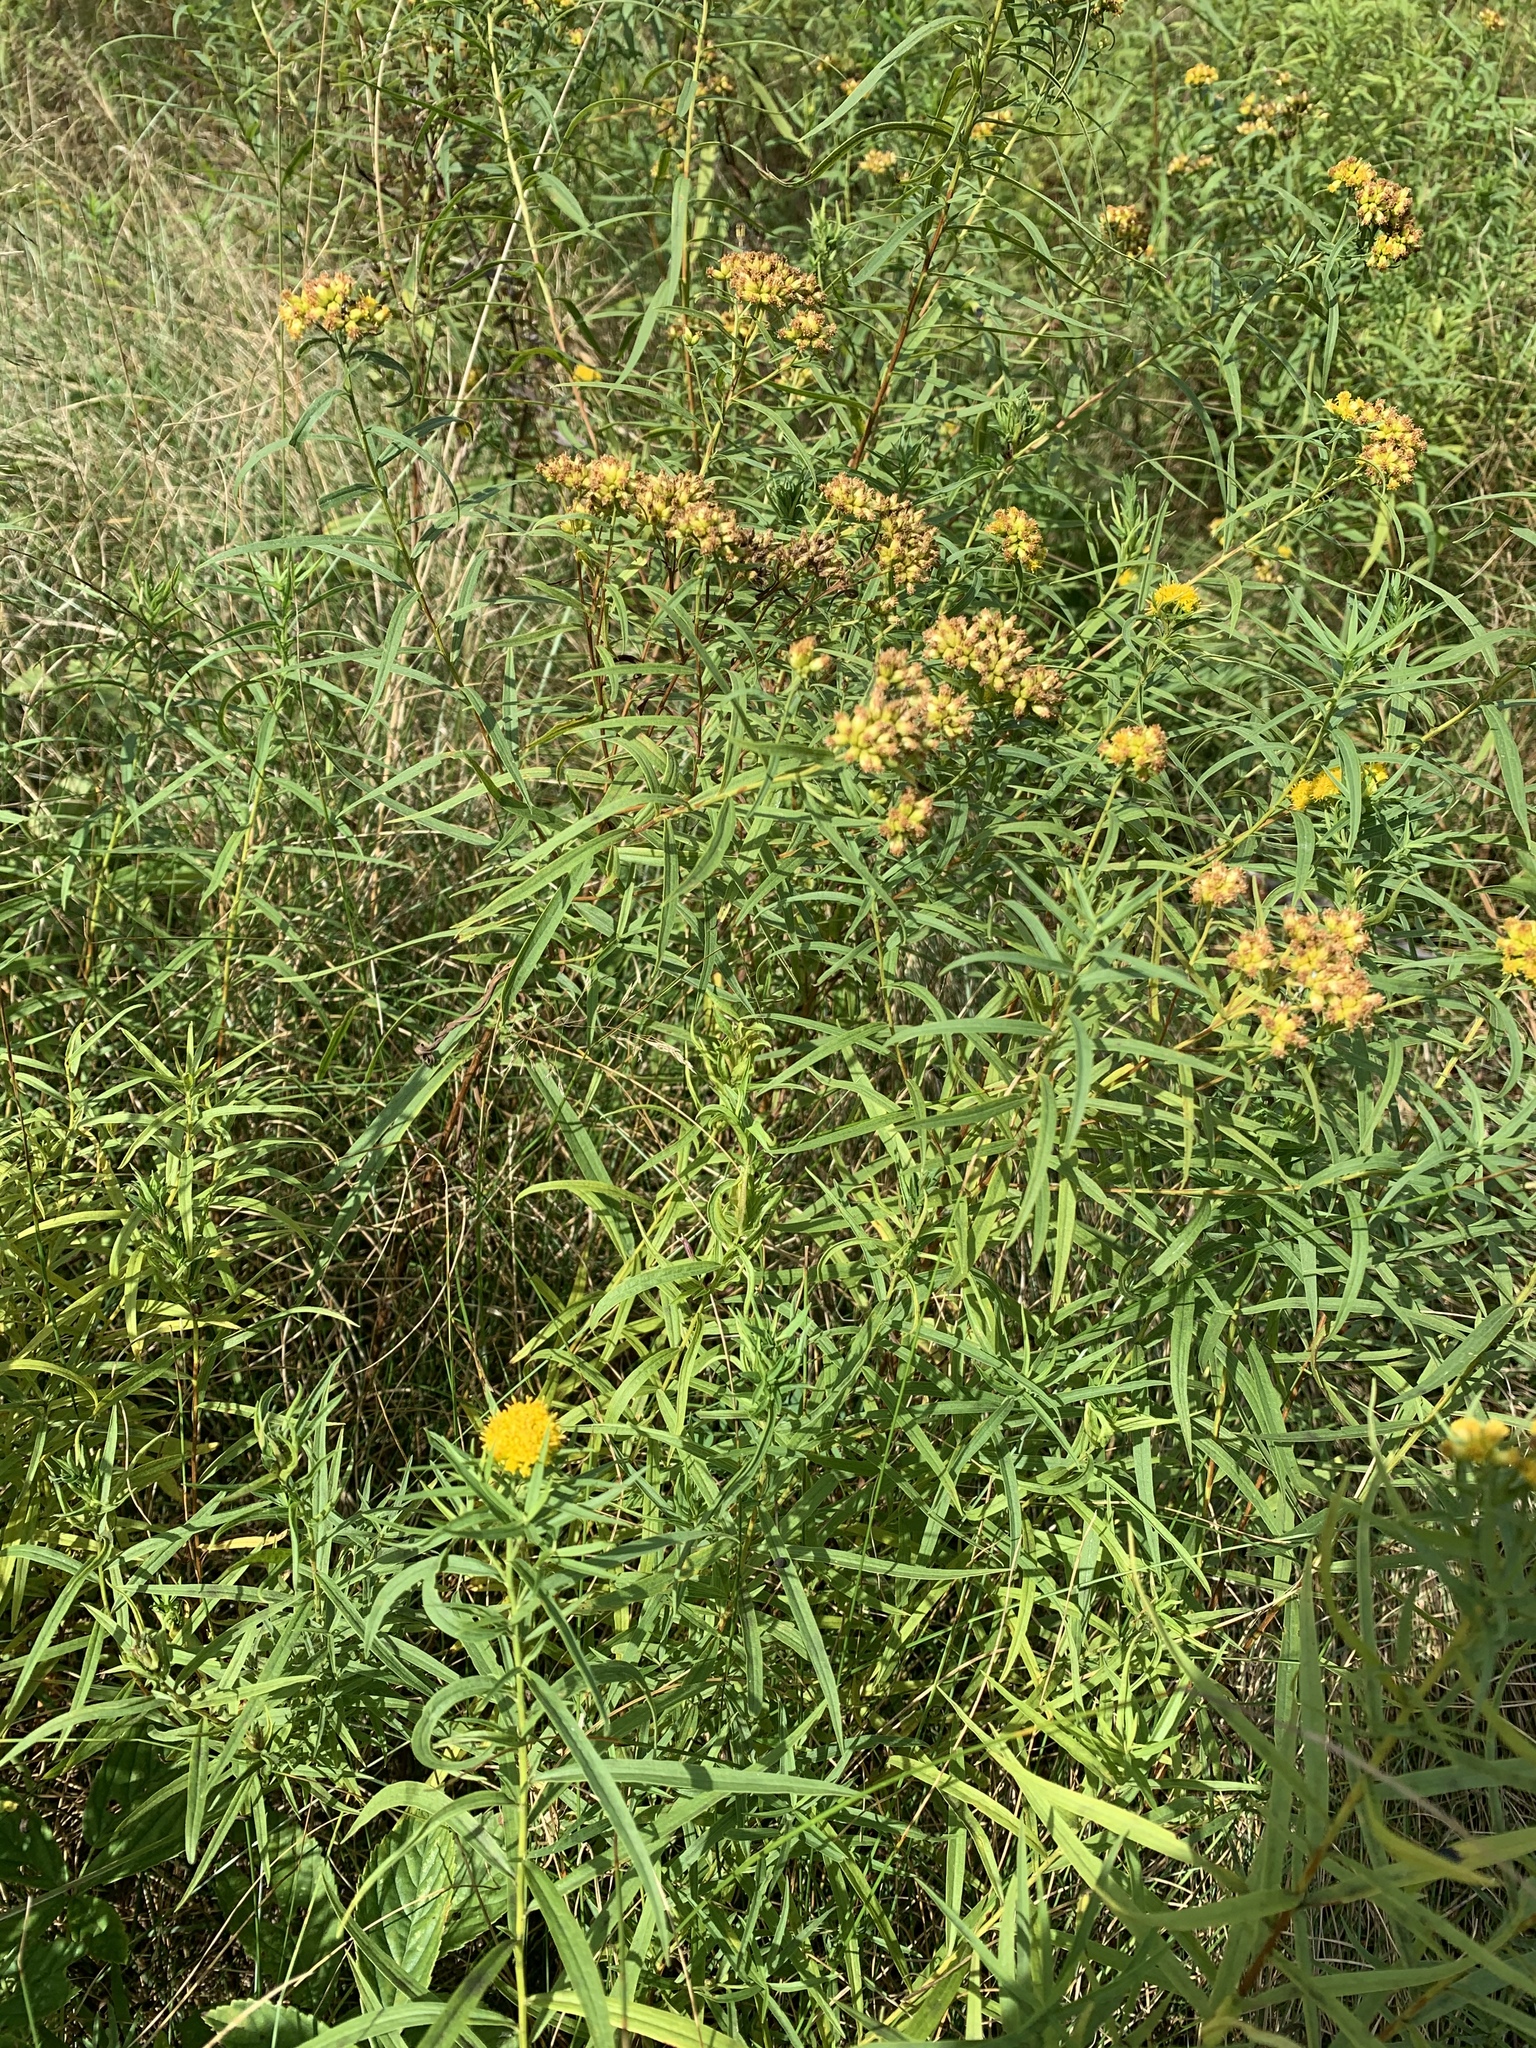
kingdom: Plantae
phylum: Tracheophyta
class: Magnoliopsida
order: Asterales
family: Asteraceae
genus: Euthamia
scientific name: Euthamia graminifolia
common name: Common goldentop
